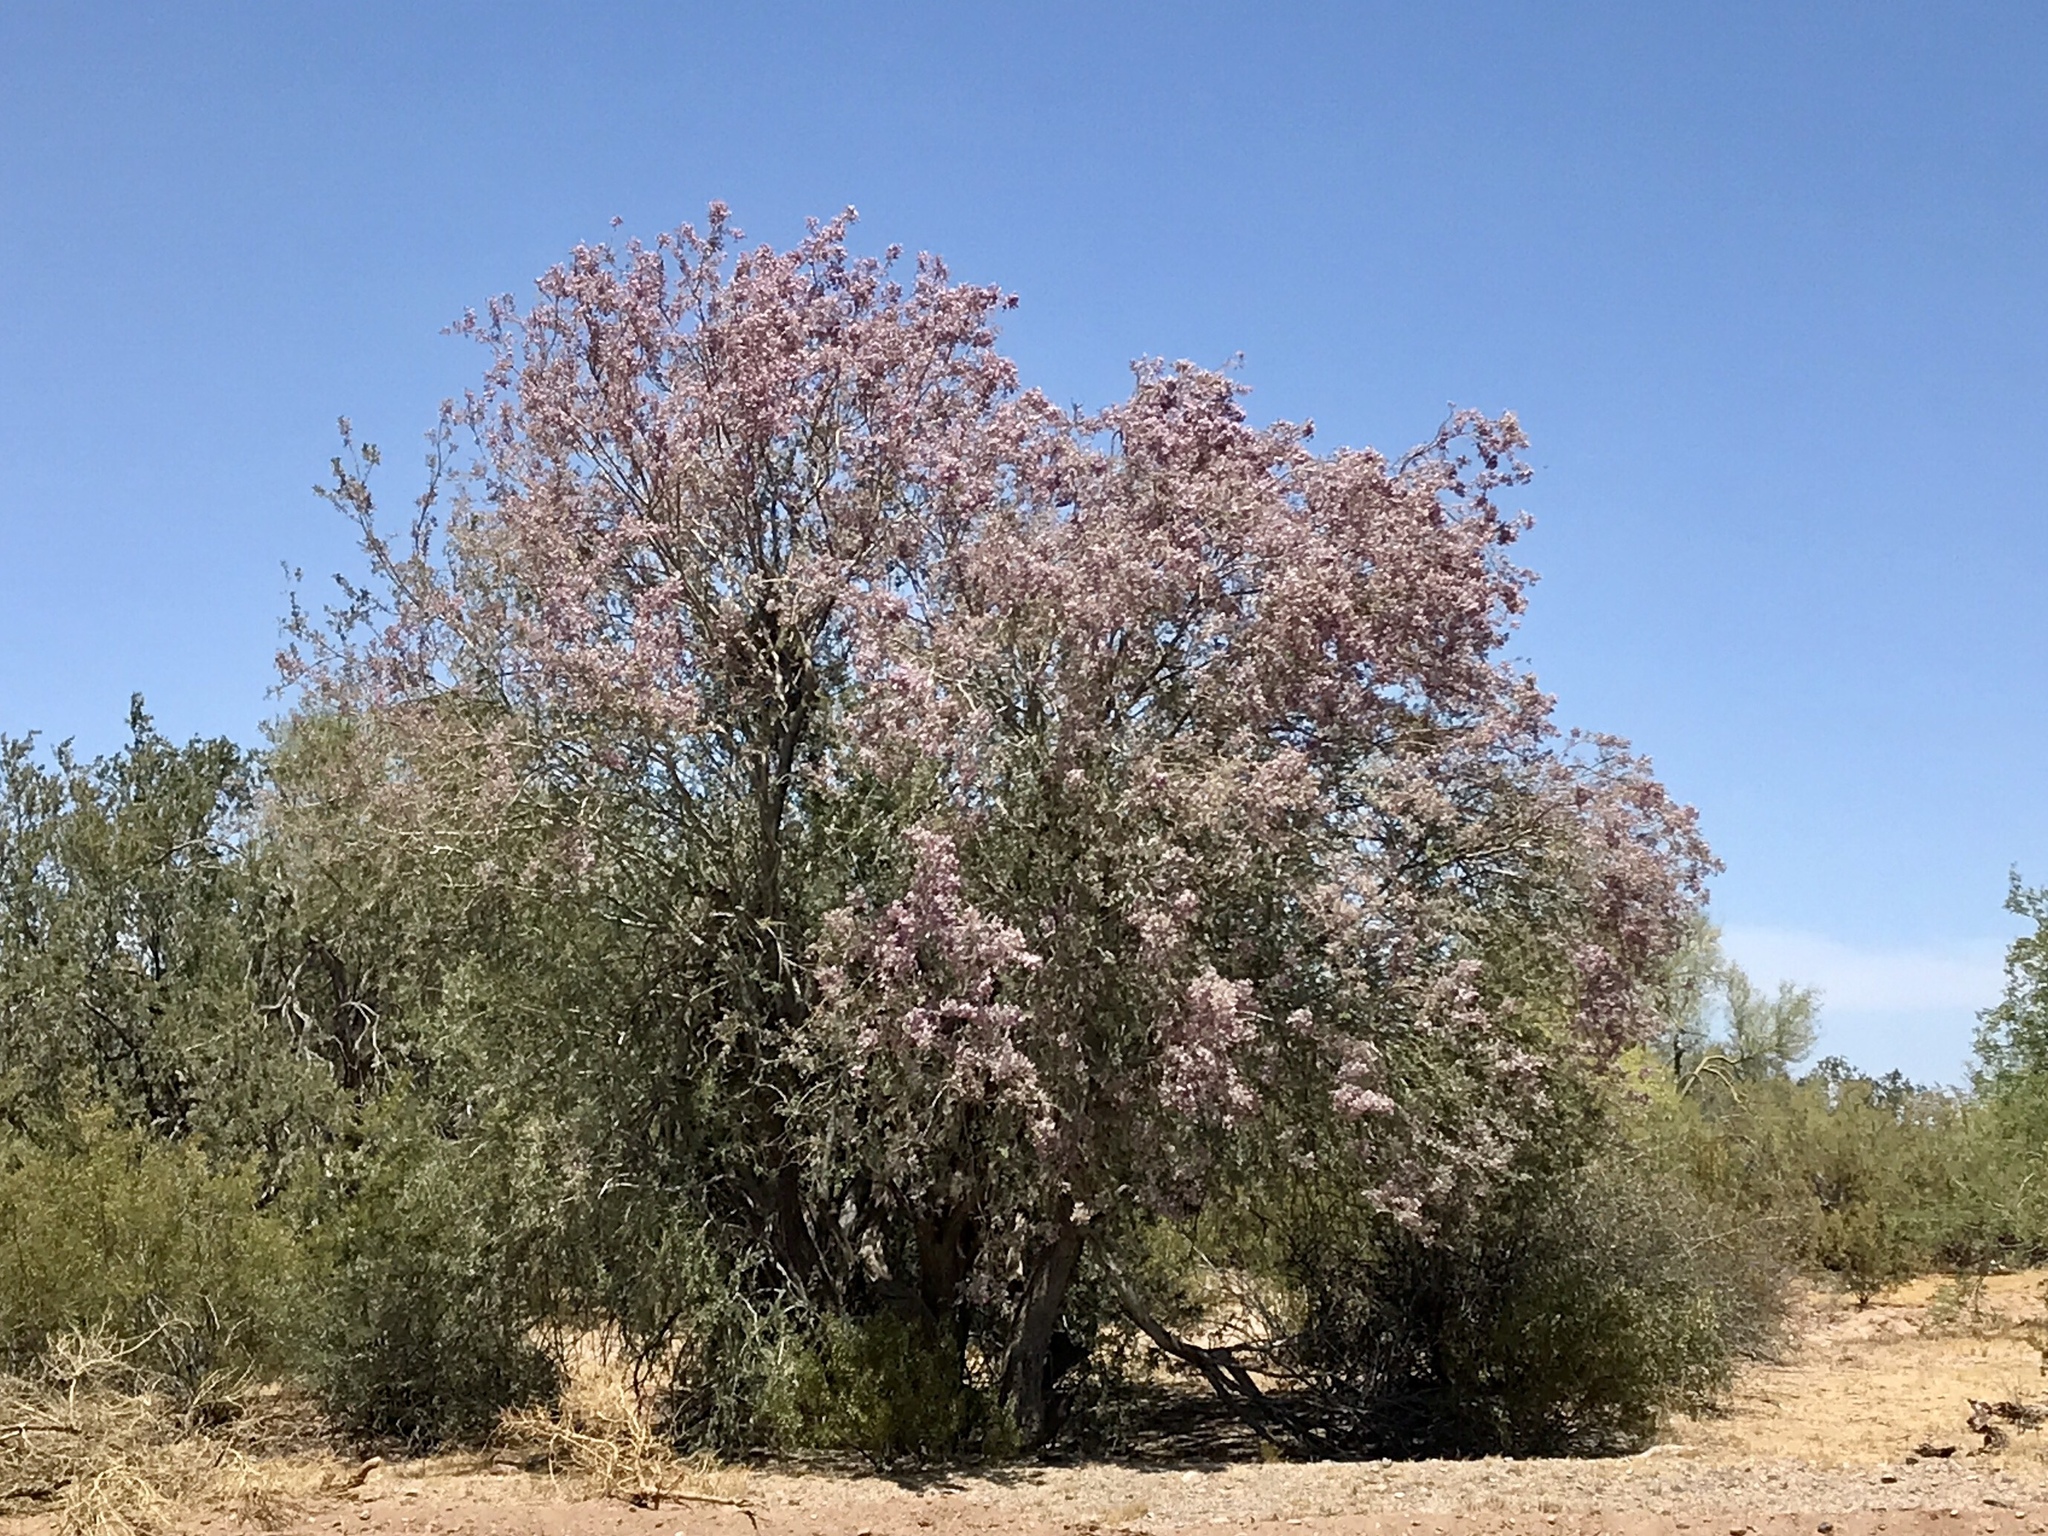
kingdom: Plantae
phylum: Tracheophyta
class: Magnoliopsida
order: Fabales
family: Fabaceae
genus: Olneya
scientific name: Olneya tesota
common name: Desert ironwood
